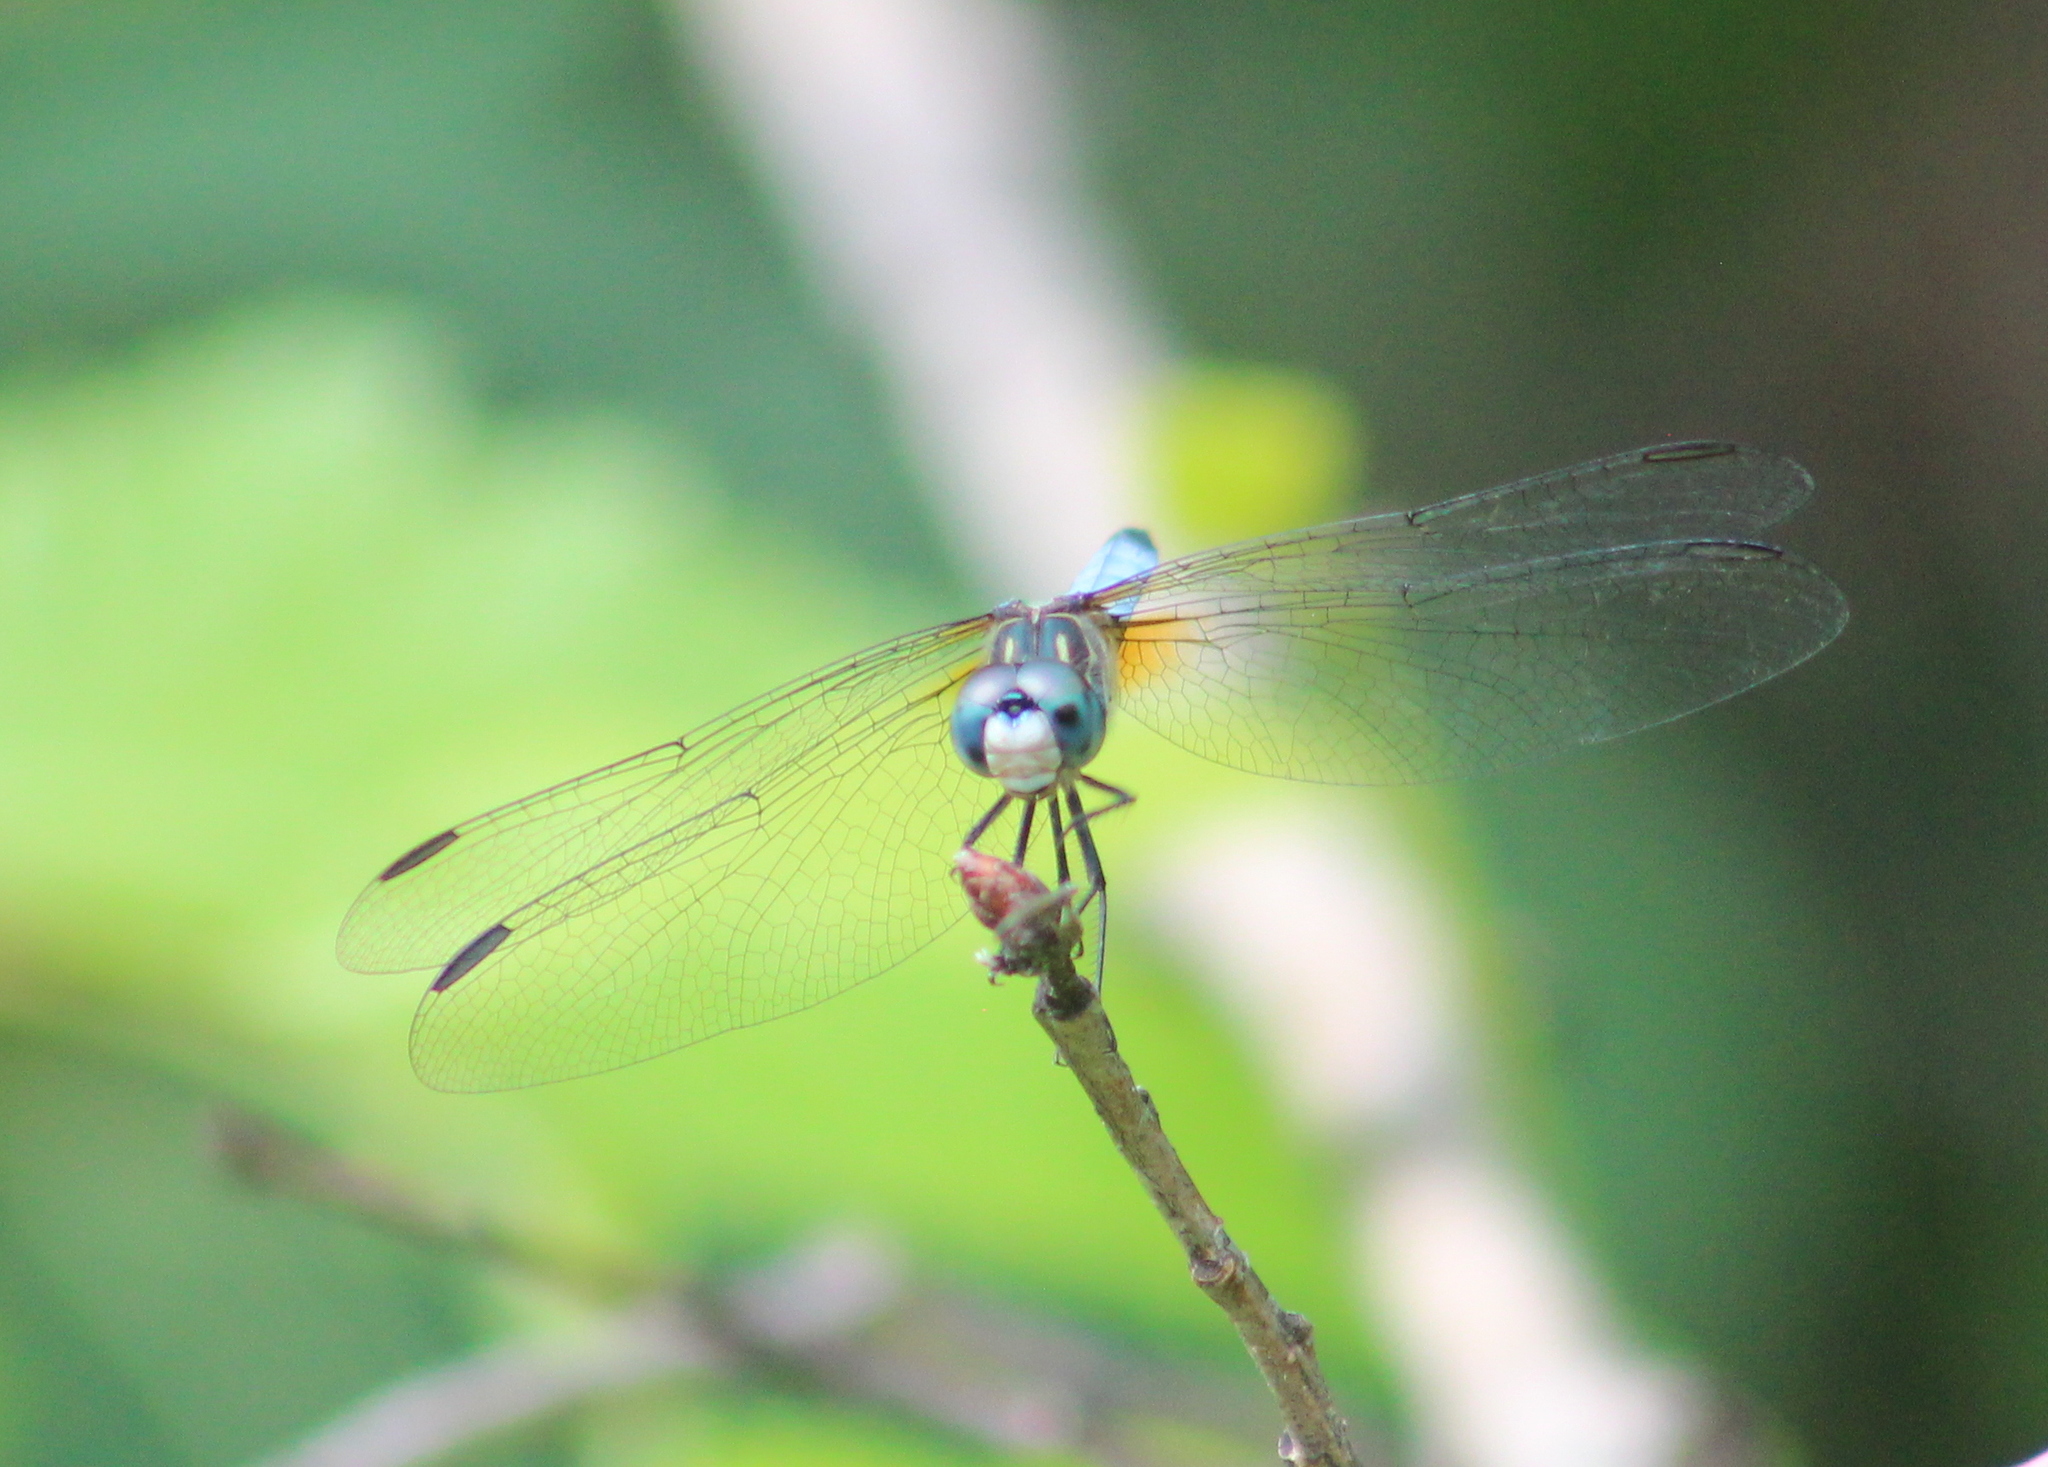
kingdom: Animalia
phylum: Arthropoda
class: Insecta
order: Odonata
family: Libellulidae
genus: Pachydiplax
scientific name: Pachydiplax longipennis
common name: Blue dasher
